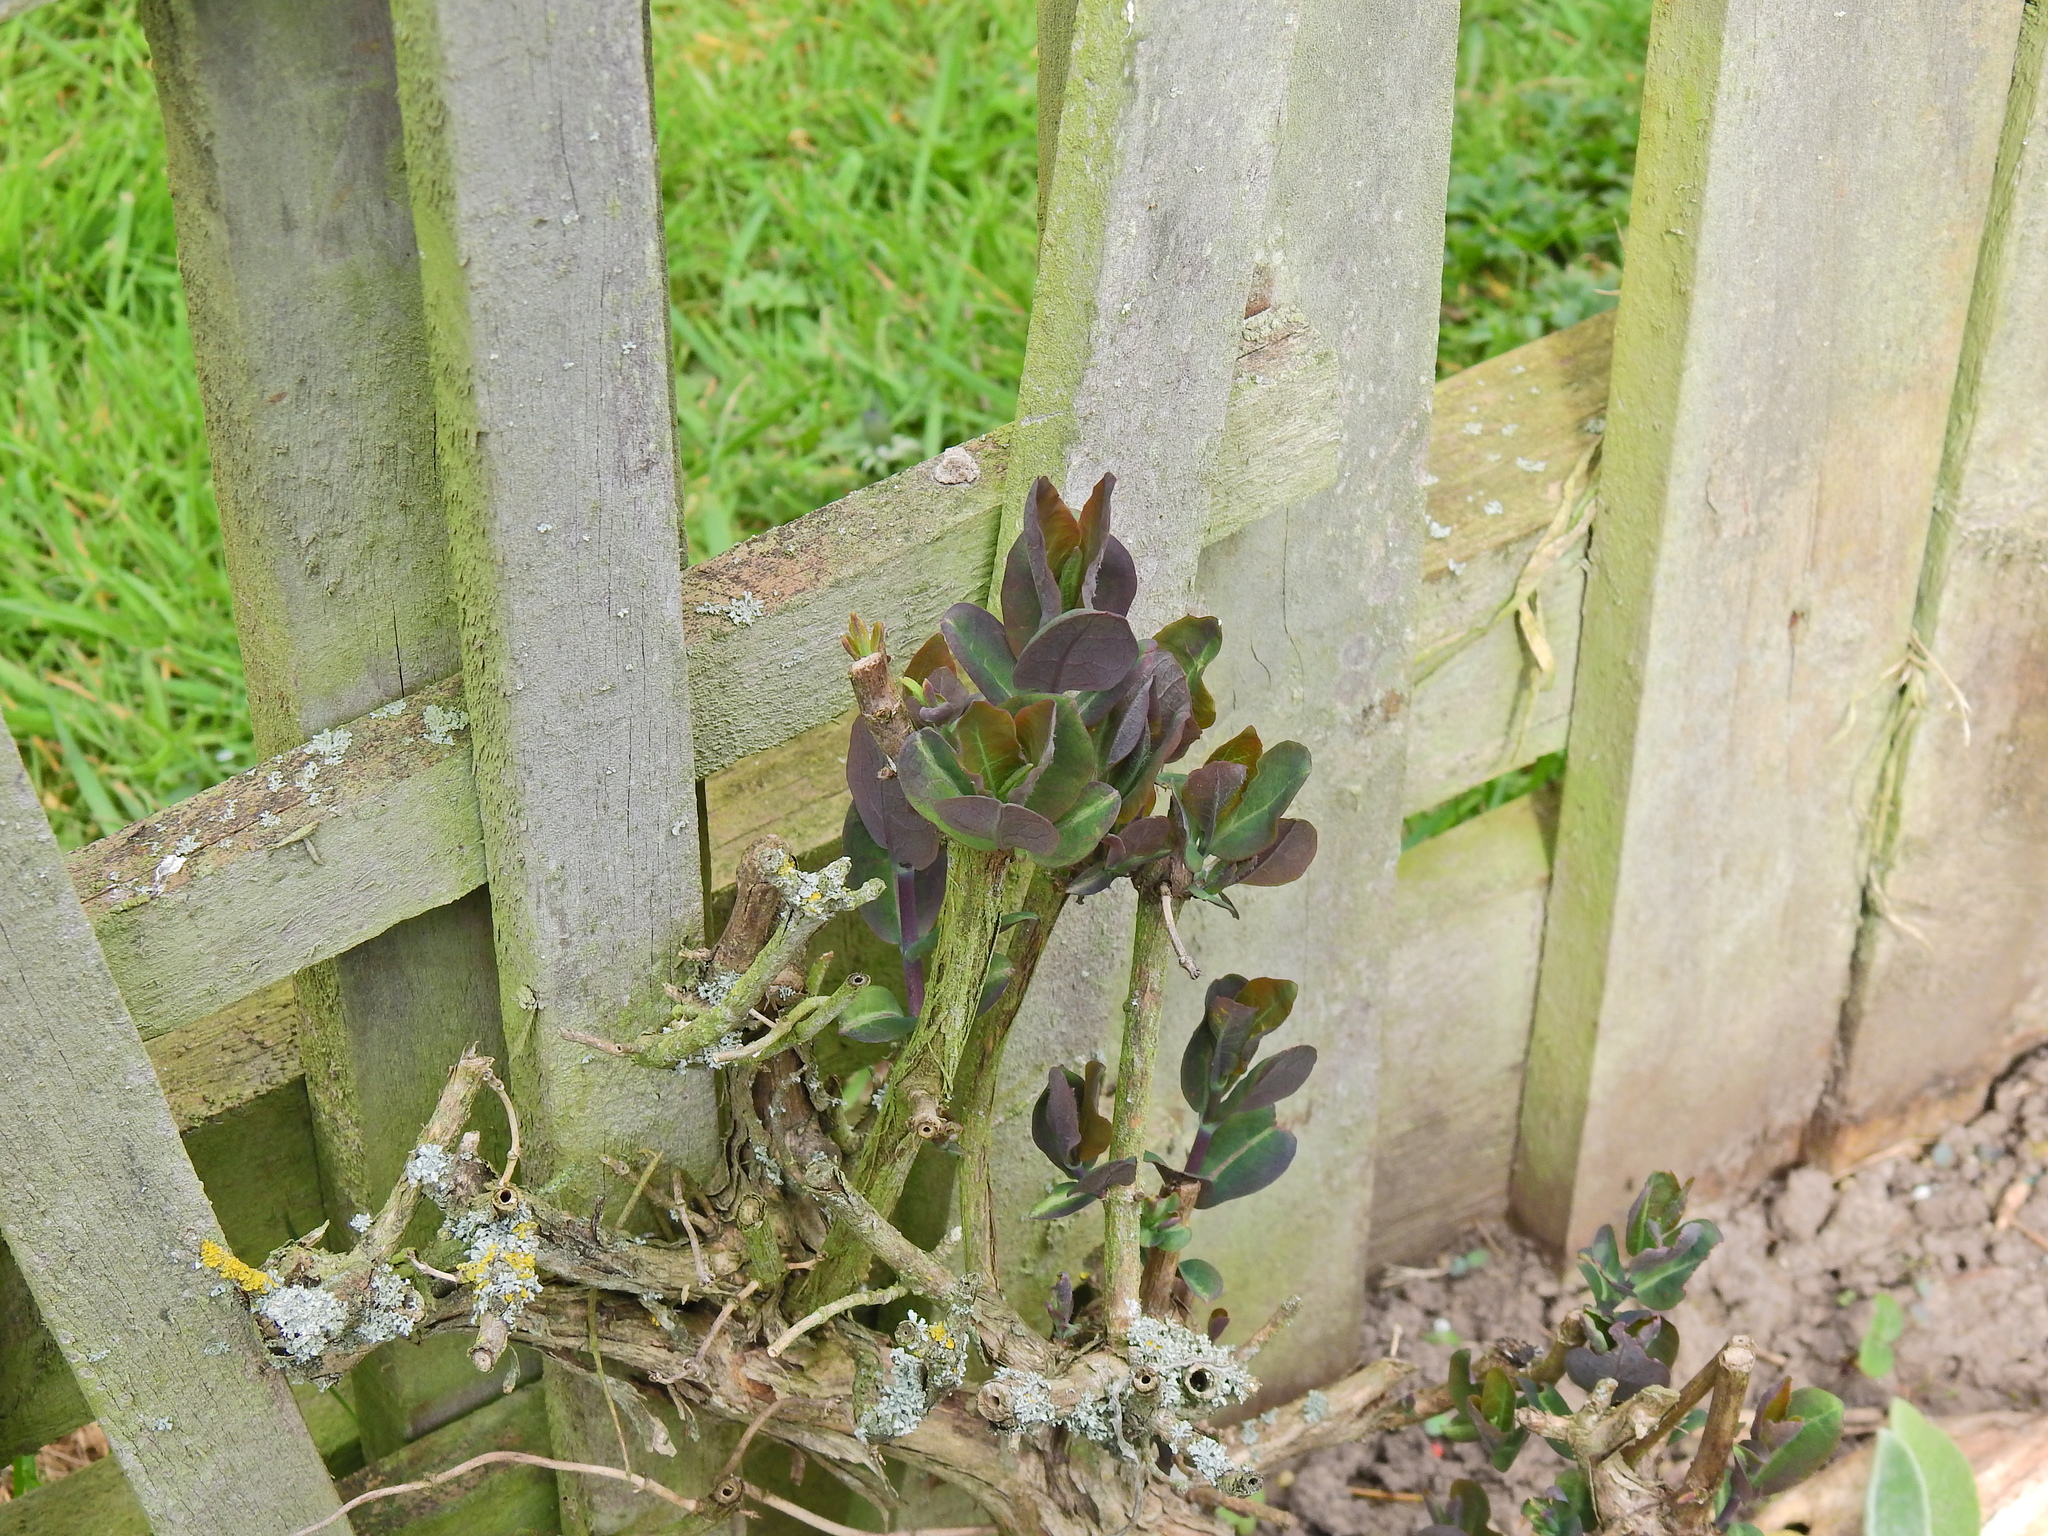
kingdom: Plantae
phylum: Tracheophyta
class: Magnoliopsida
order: Dipsacales
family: Caprifoliaceae
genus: Lonicera
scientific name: Lonicera periclymenum
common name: European honeysuckle
